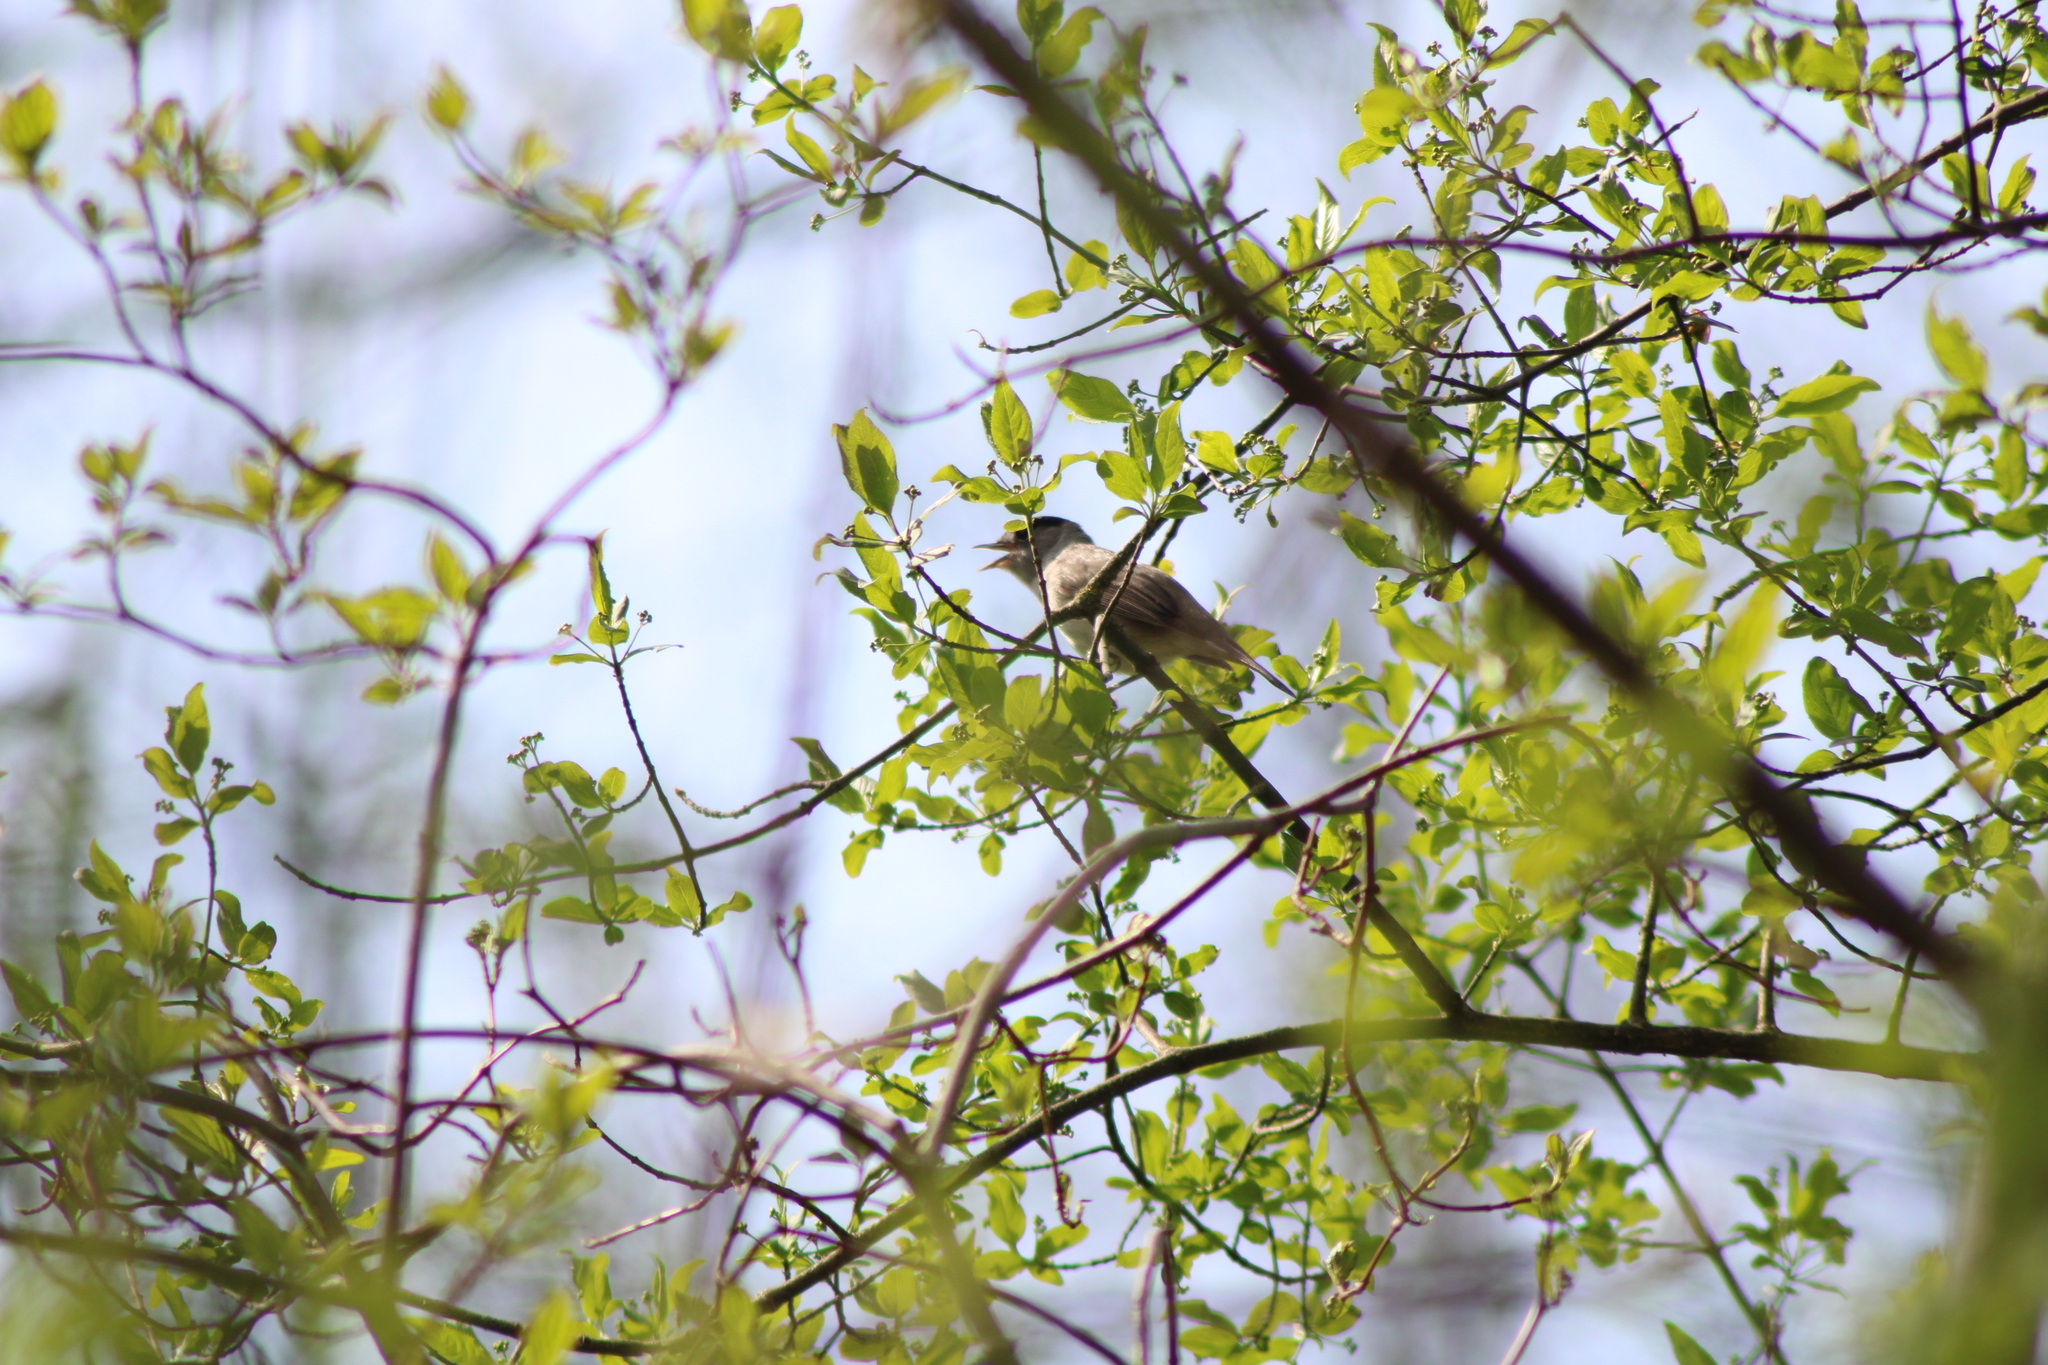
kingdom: Animalia
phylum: Chordata
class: Aves
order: Passeriformes
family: Sylviidae
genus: Sylvia
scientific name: Sylvia atricapilla
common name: Eurasian blackcap
